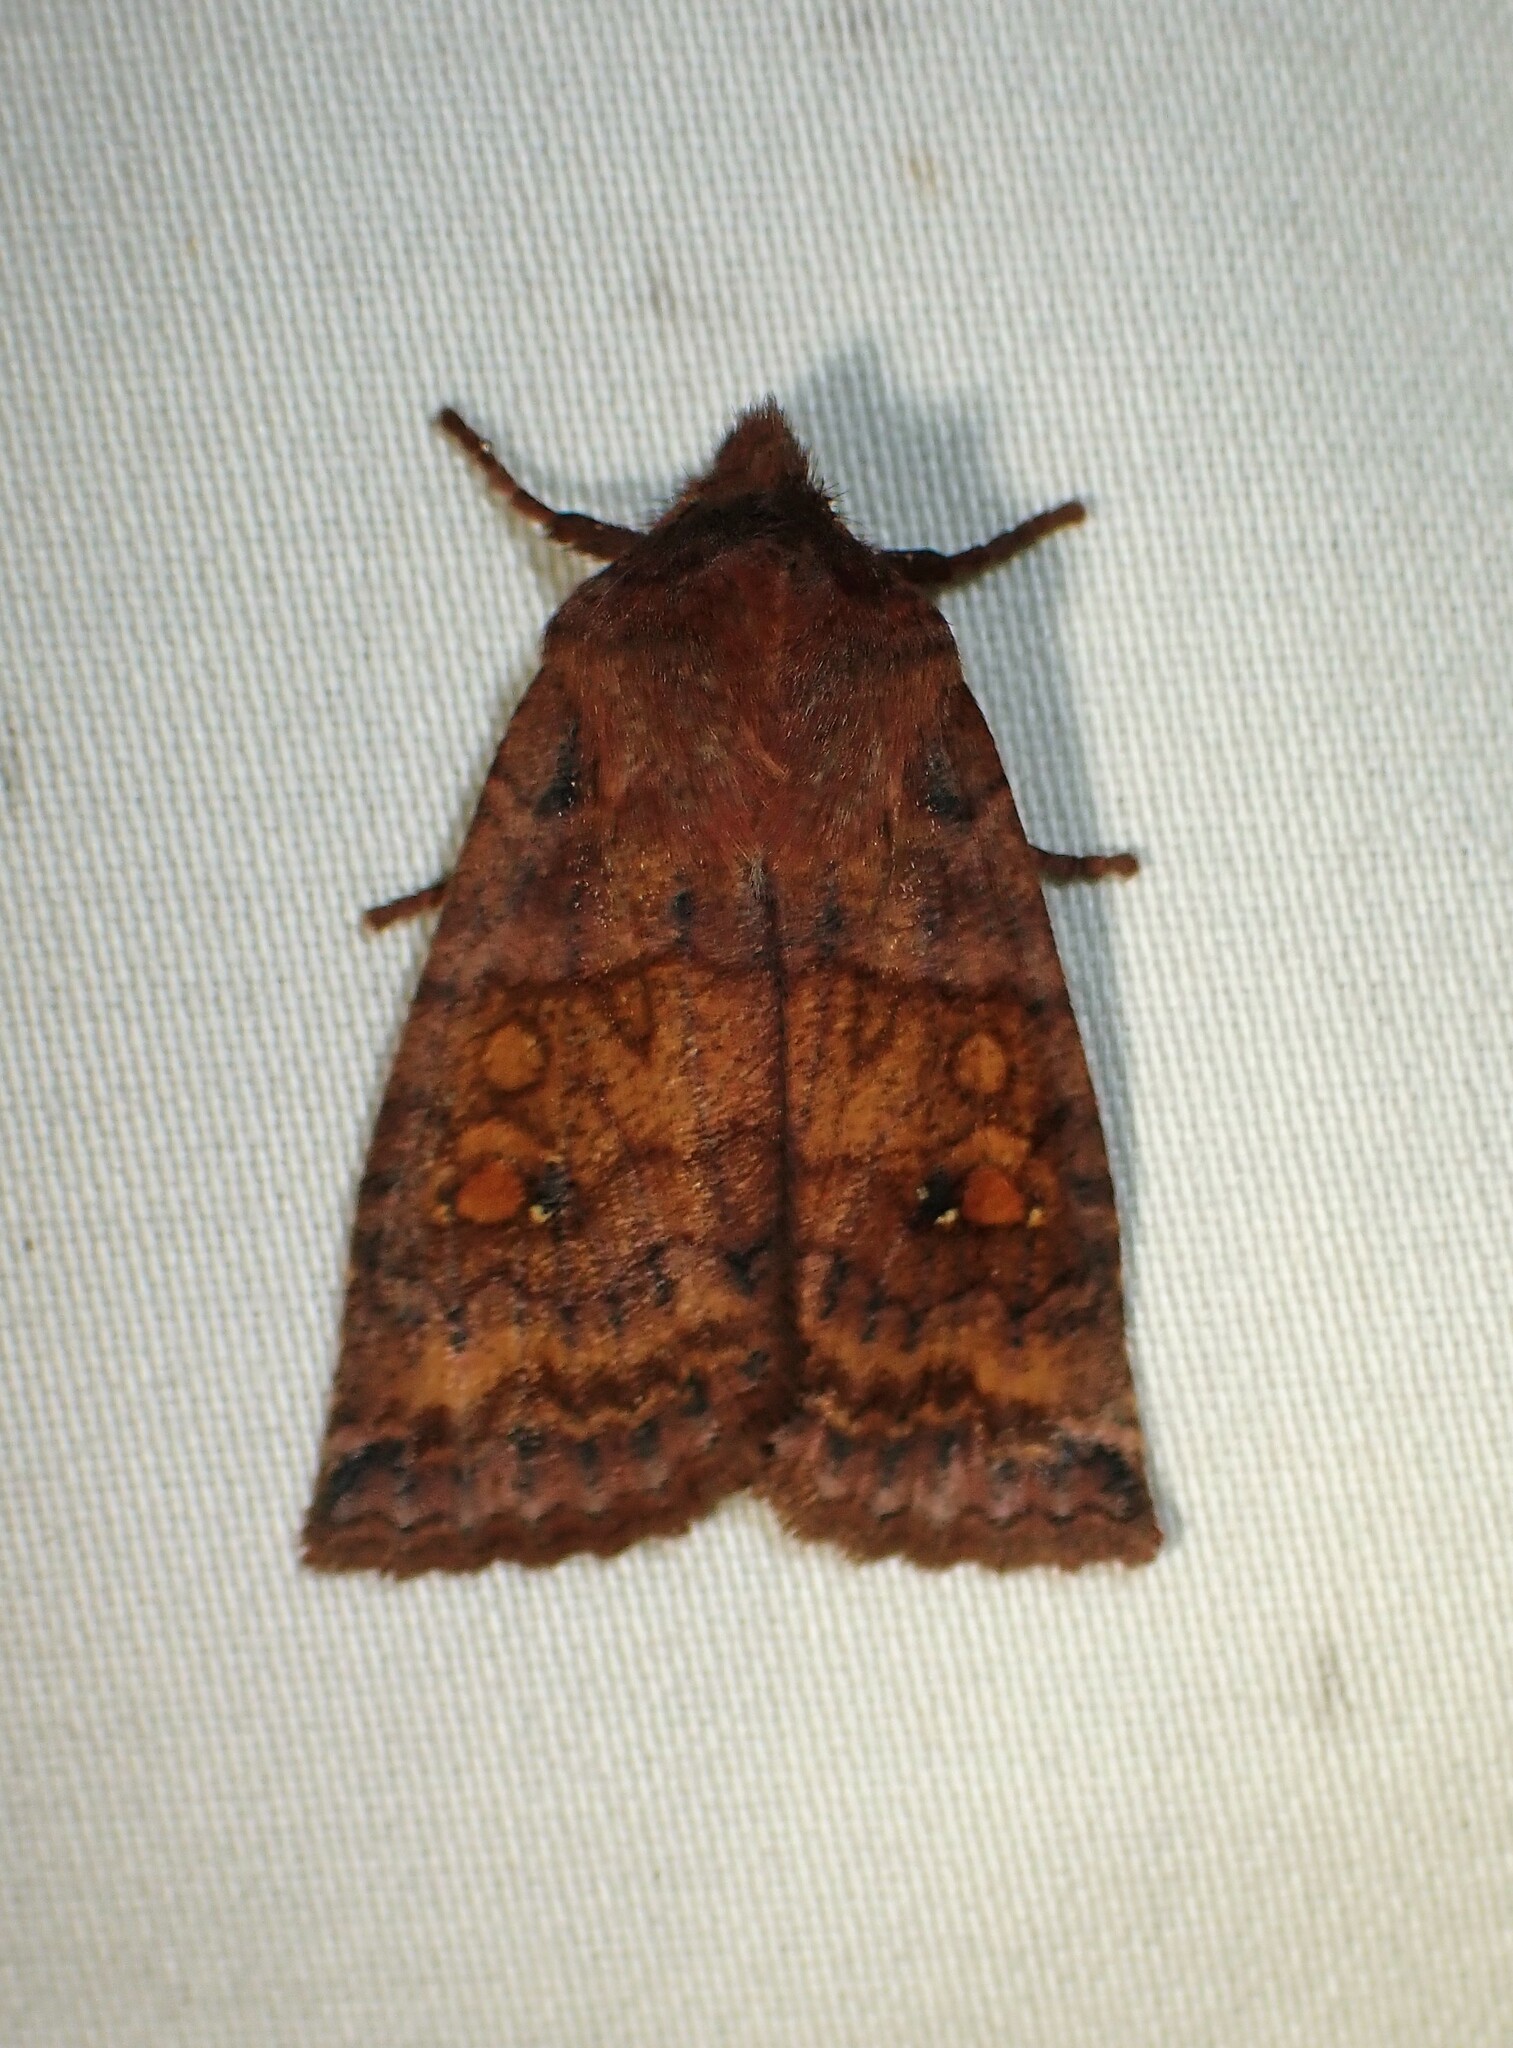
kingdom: Animalia
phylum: Arthropoda
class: Insecta
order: Lepidoptera
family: Noctuidae
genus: Eupsilia
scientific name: Eupsilia tristigmata
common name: Three-spotted sallow
